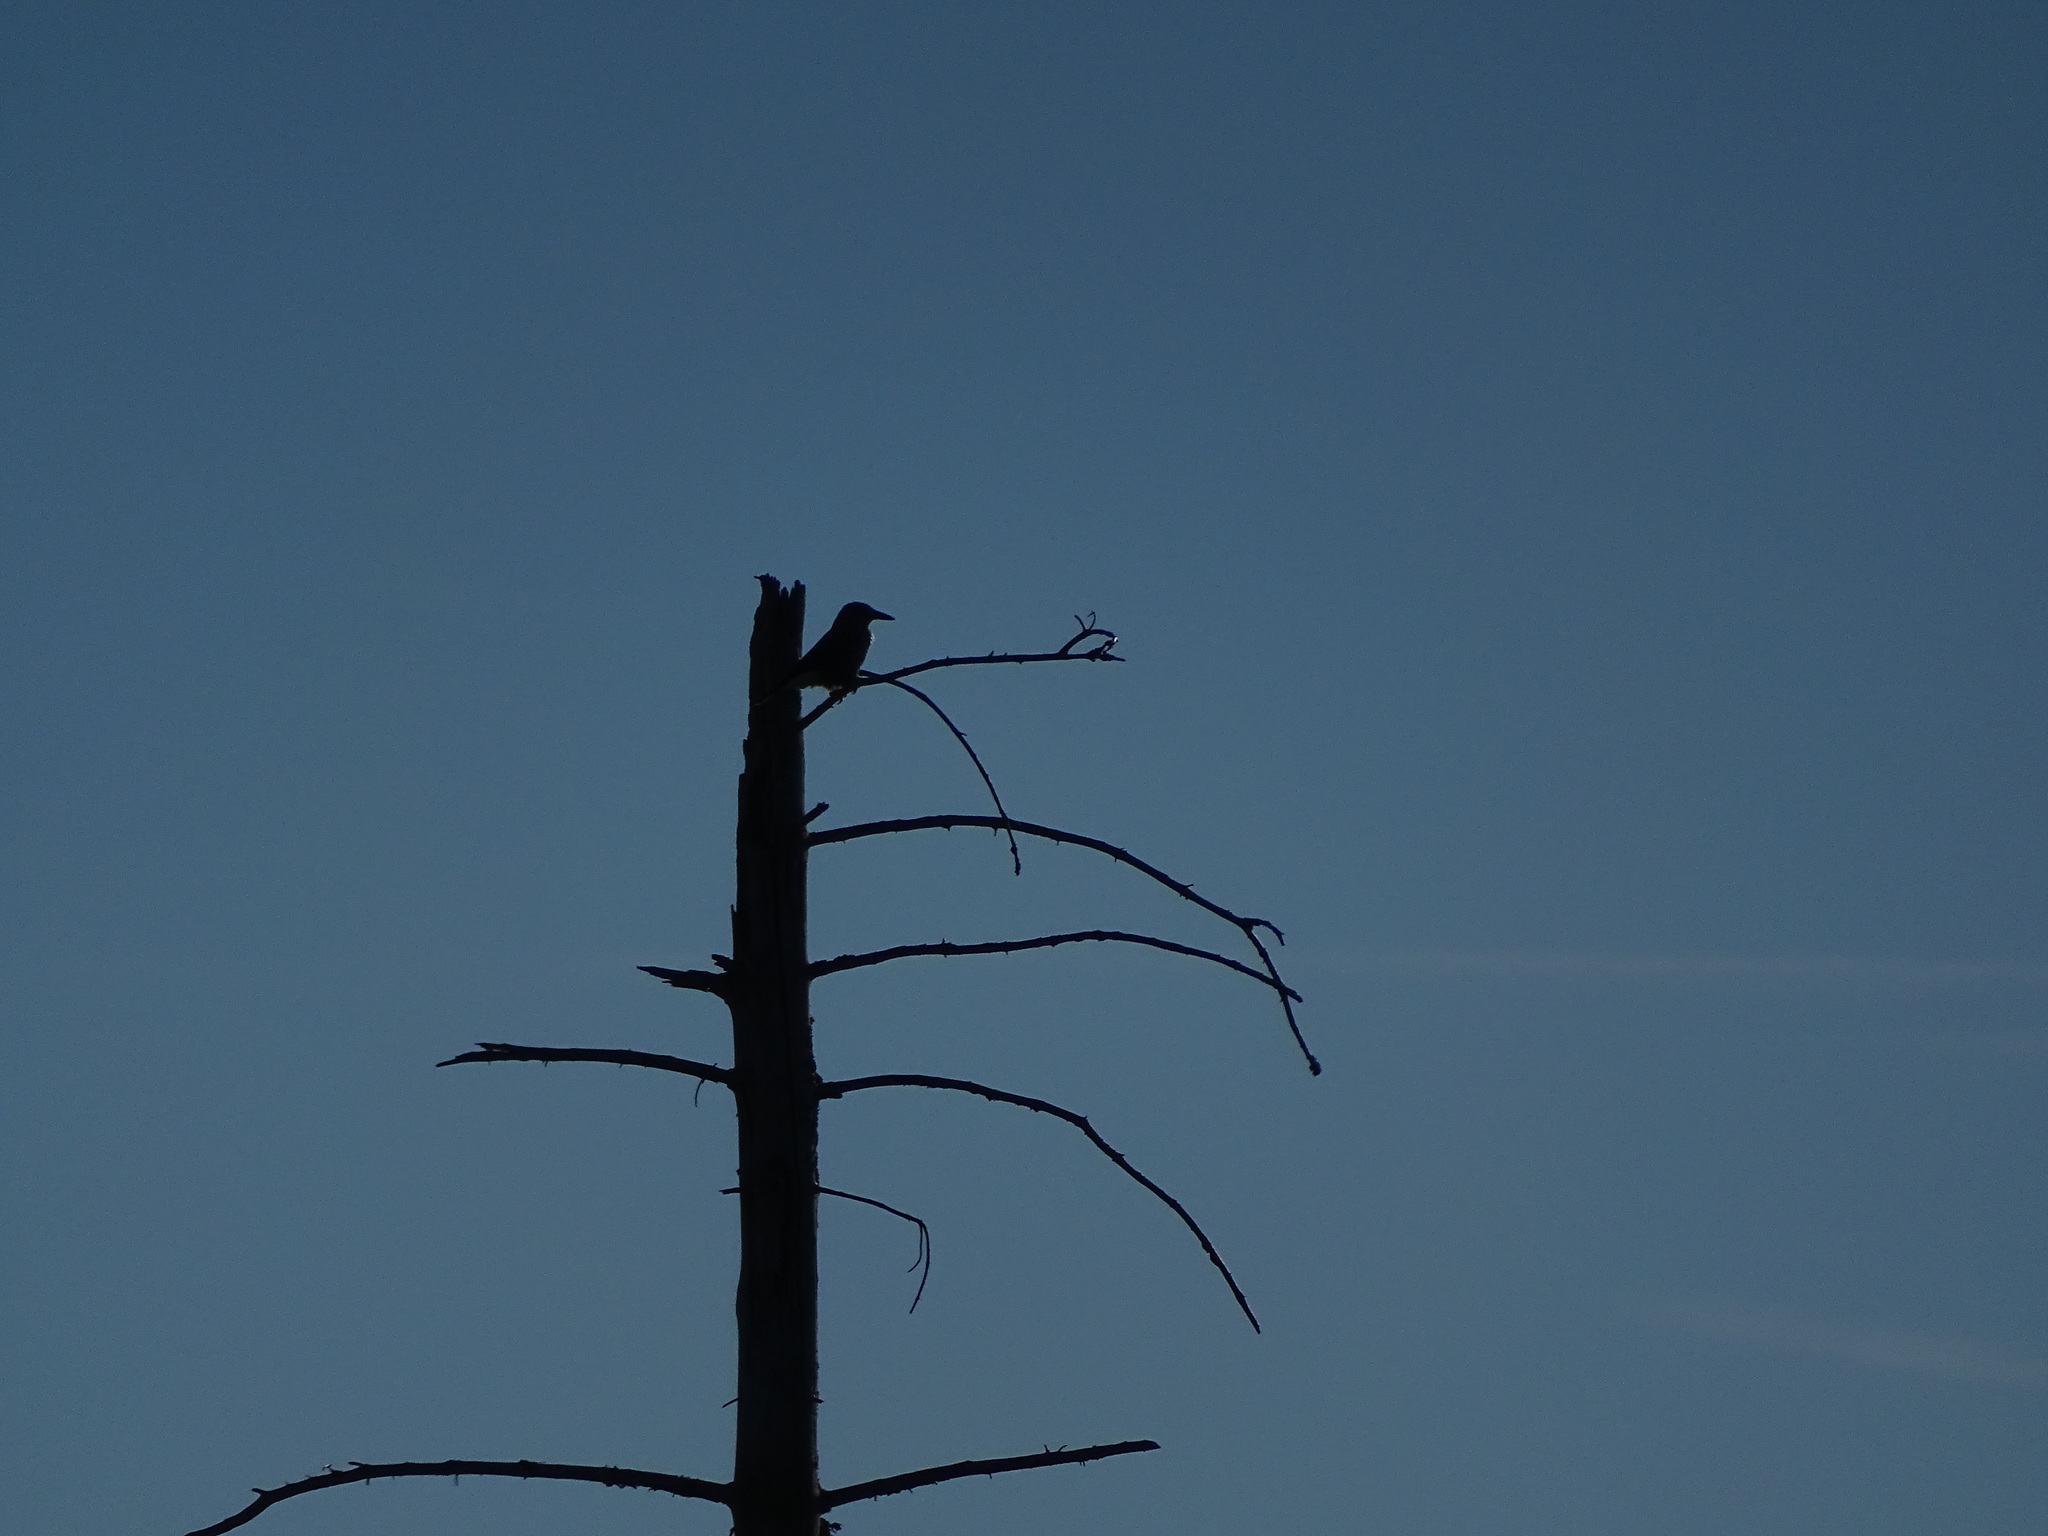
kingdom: Animalia
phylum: Chordata
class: Aves
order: Passeriformes
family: Corvidae
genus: Nucifraga
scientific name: Nucifraga caryocatactes
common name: Spotted nutcracker
